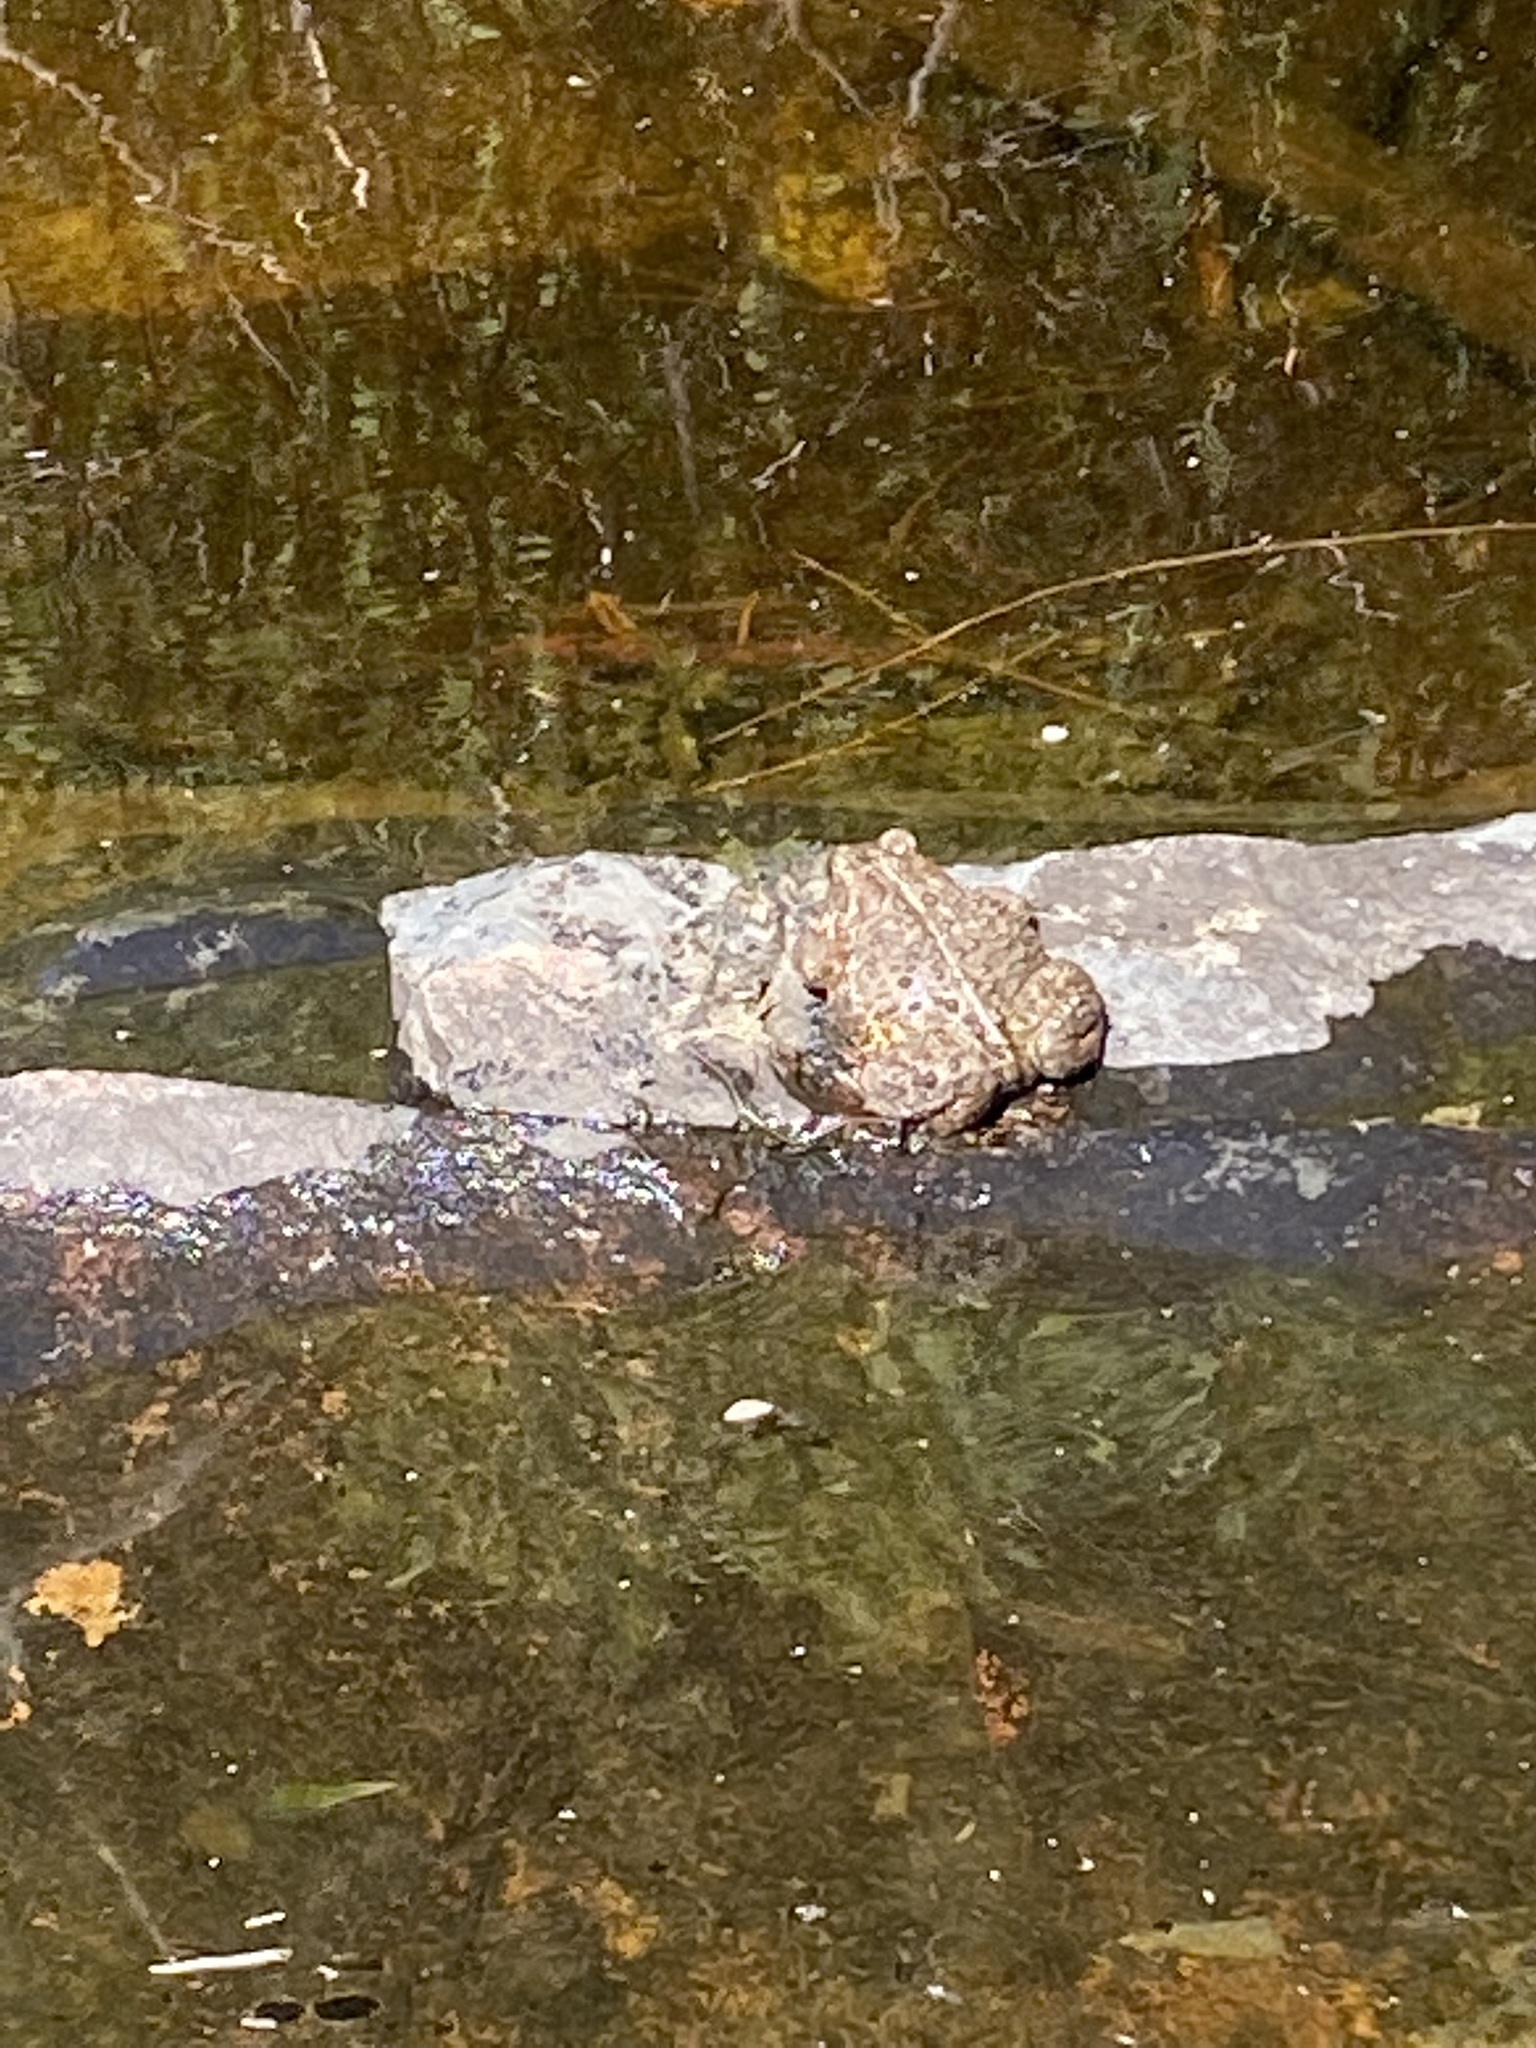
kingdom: Animalia
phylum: Chordata
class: Amphibia
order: Anura
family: Bufonidae
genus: Anaxyrus
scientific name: Anaxyrus americanus
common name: American toad
